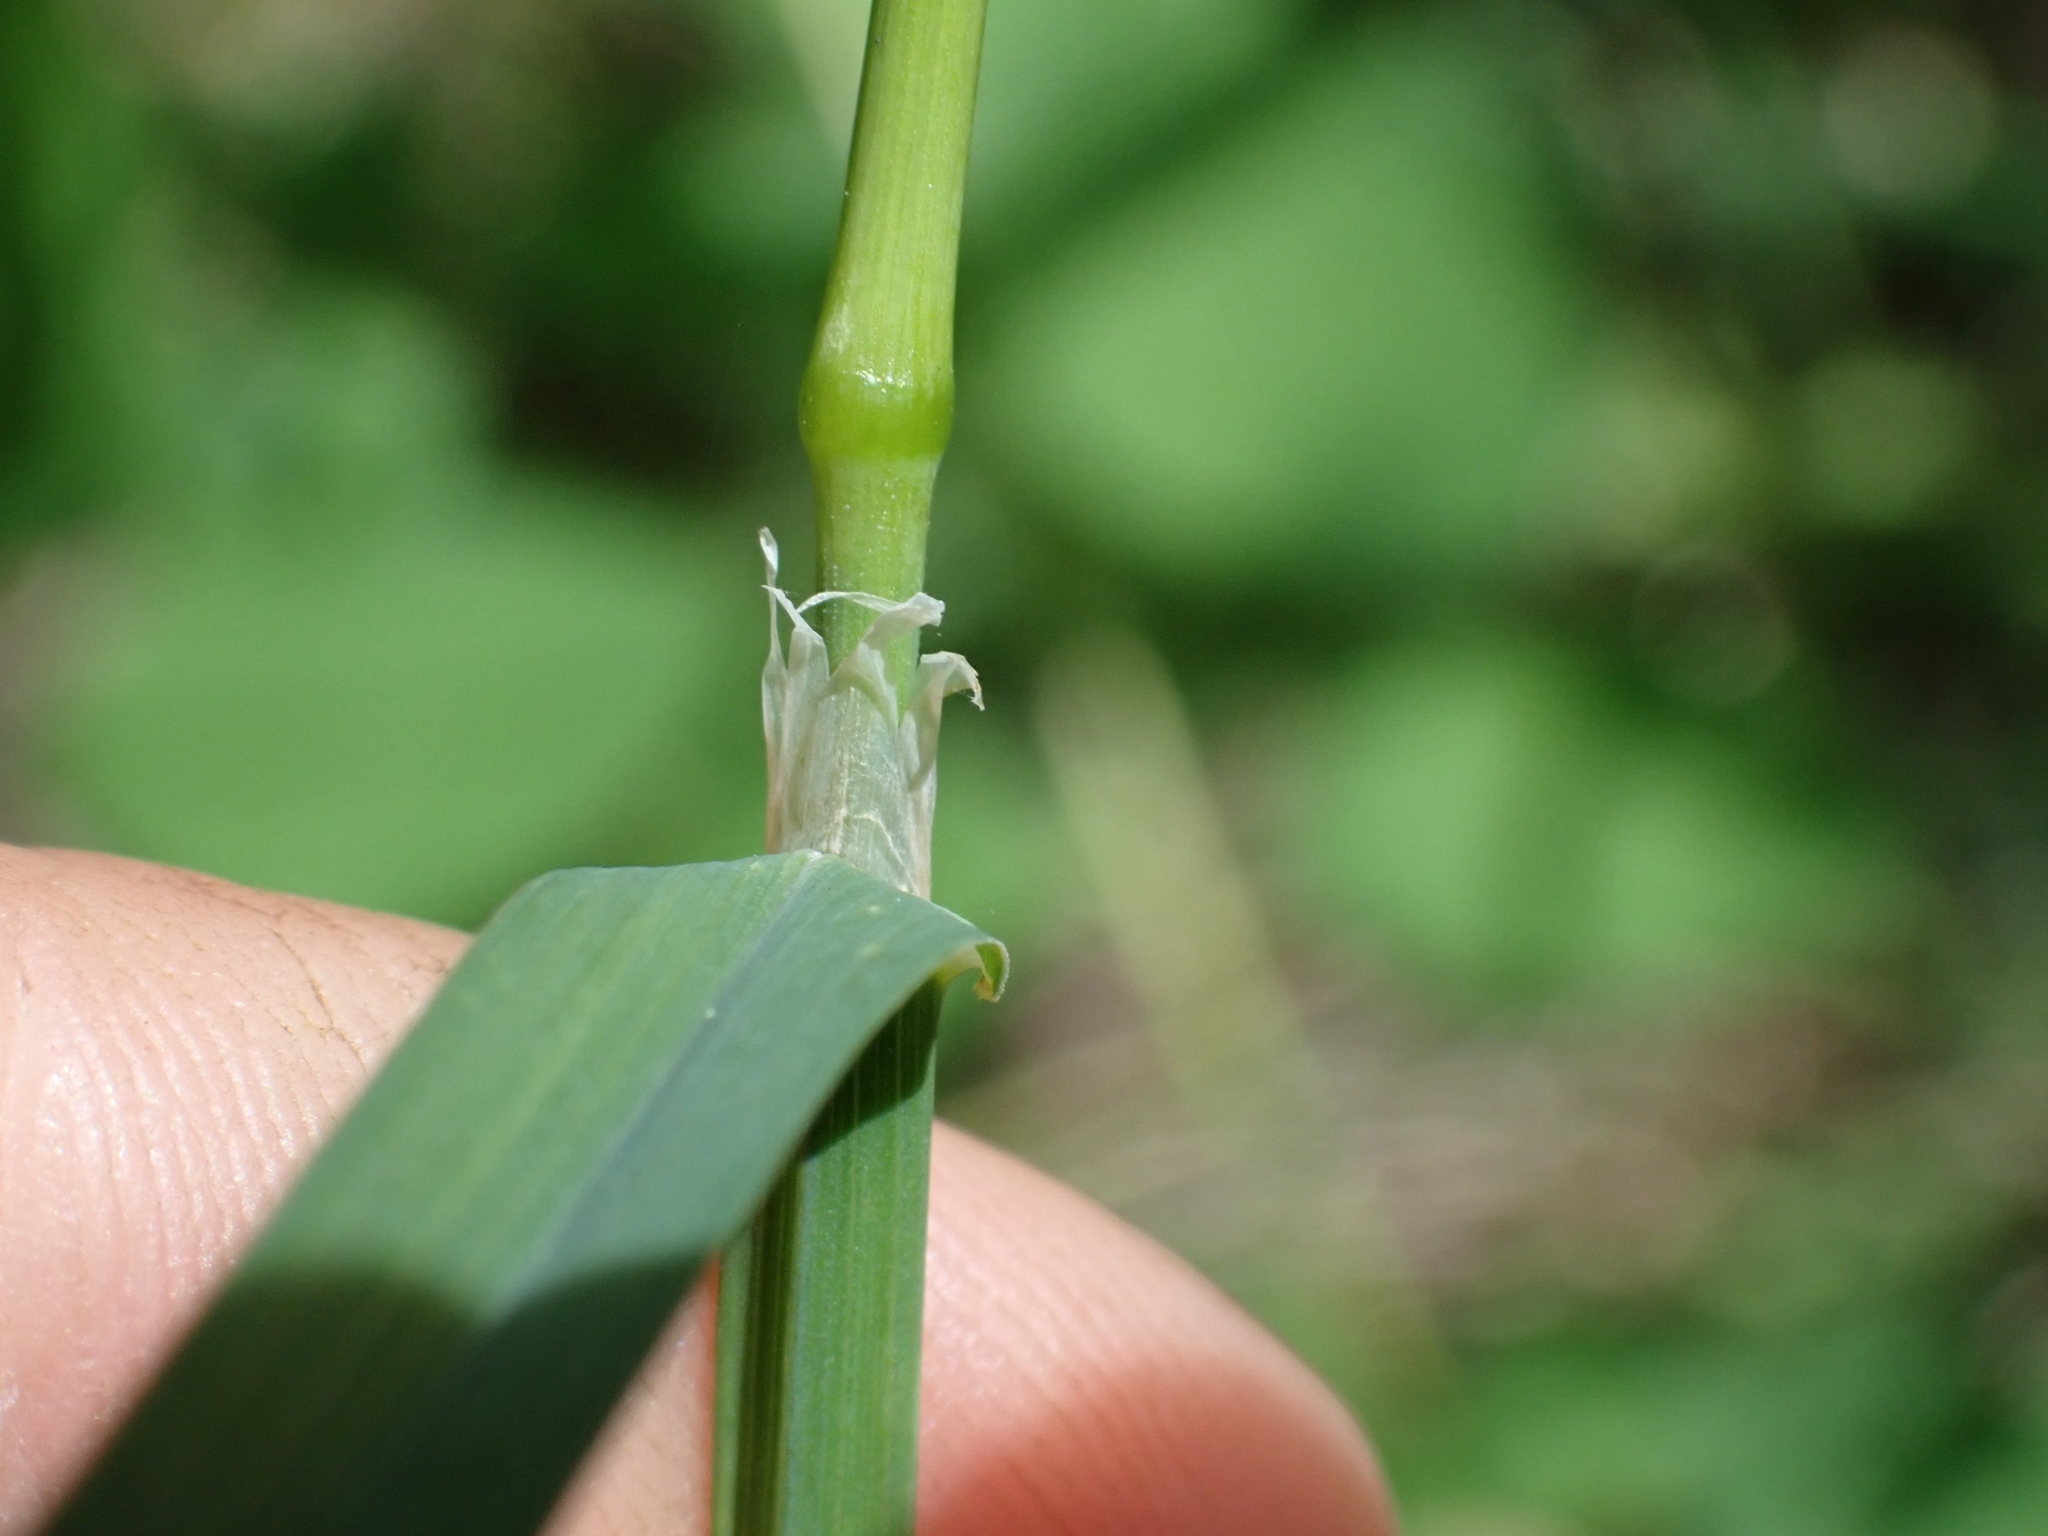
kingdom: Plantae
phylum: Tracheophyta
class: Liliopsida
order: Poales
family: Poaceae
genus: Dactylis
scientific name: Dactylis glomerata
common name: Orchardgrass
